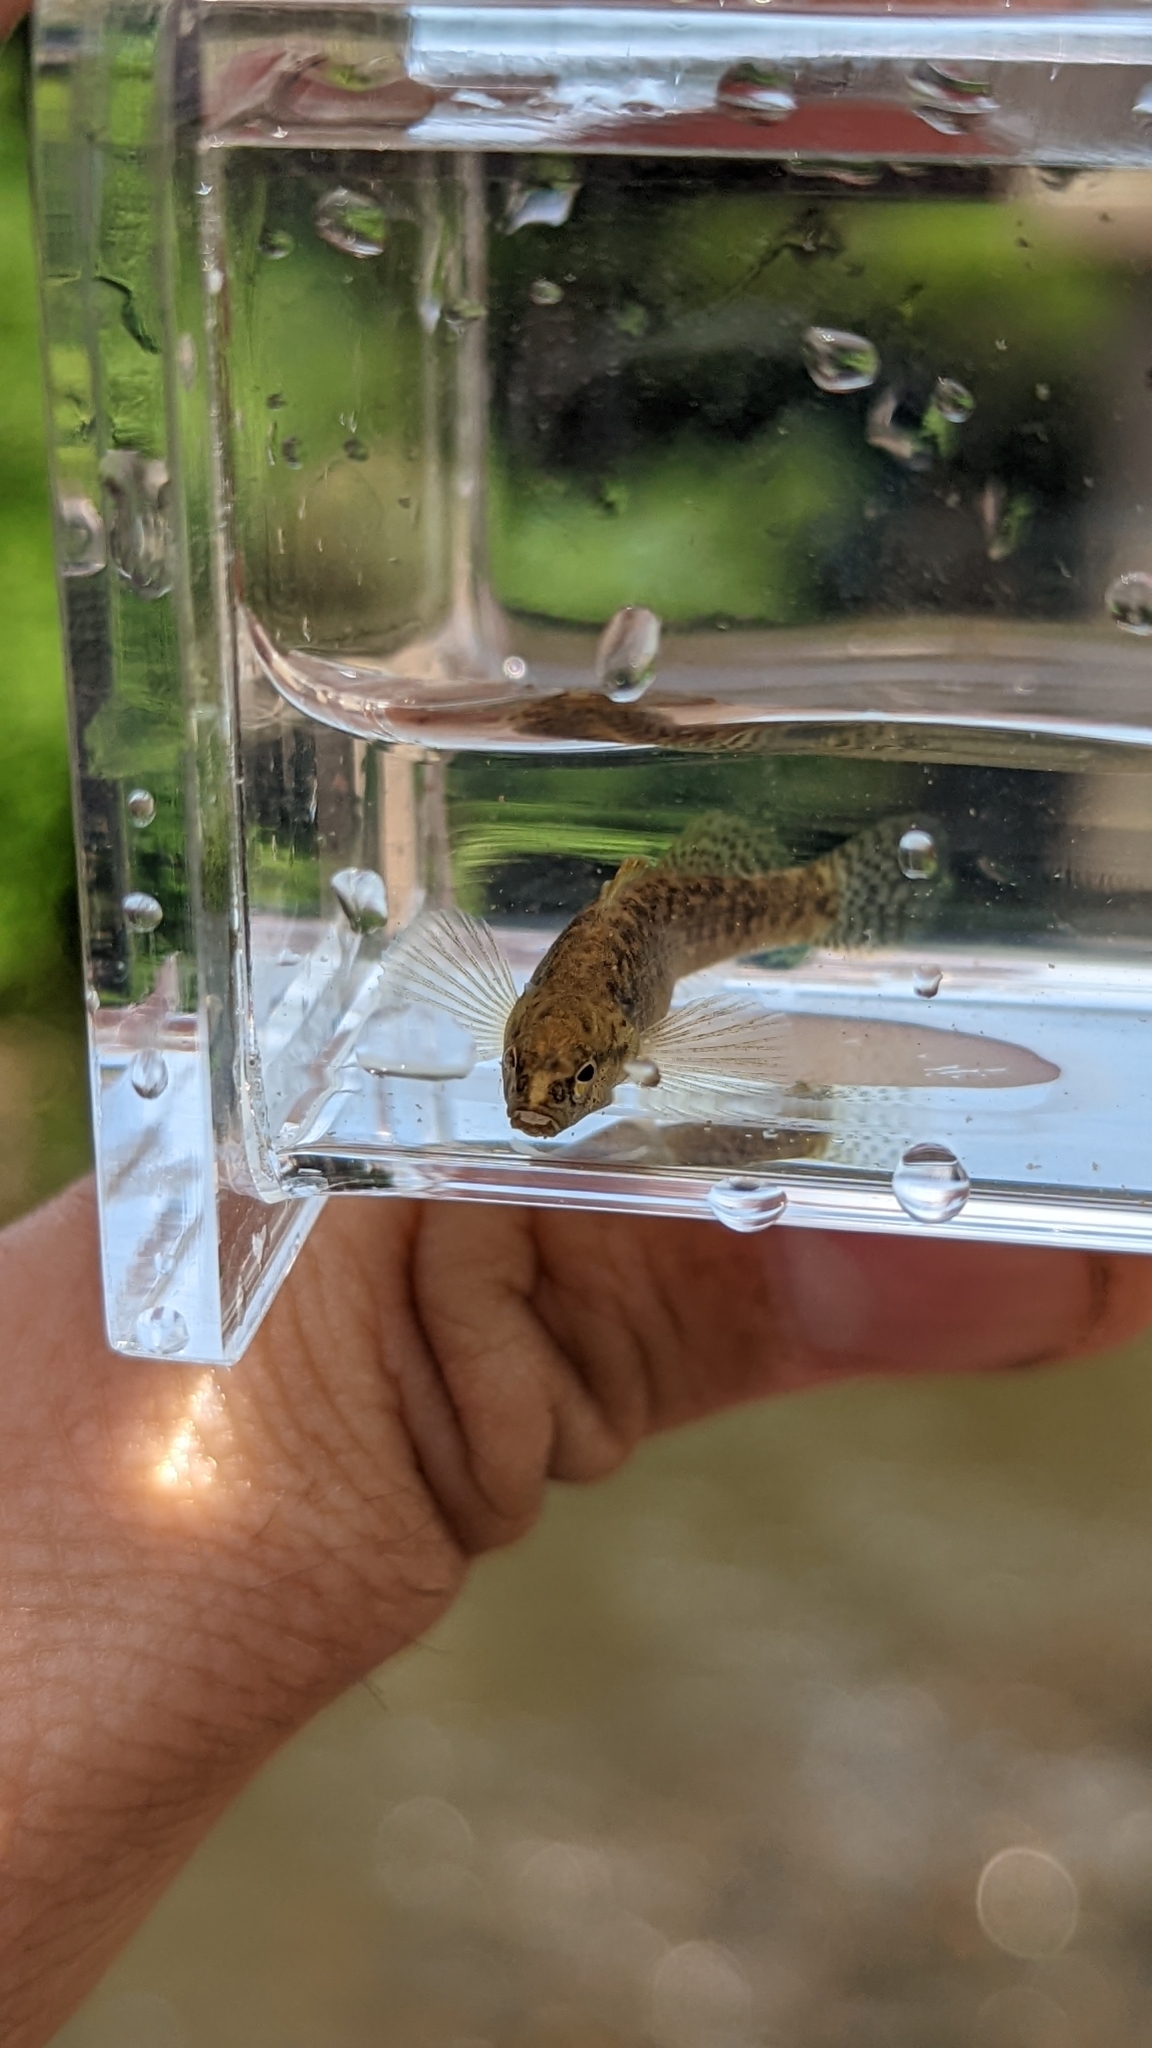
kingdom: Animalia
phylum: Chordata
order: Perciformes
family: Percidae
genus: Etheostoma
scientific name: Etheostoma flabellare
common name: Fantail darter
